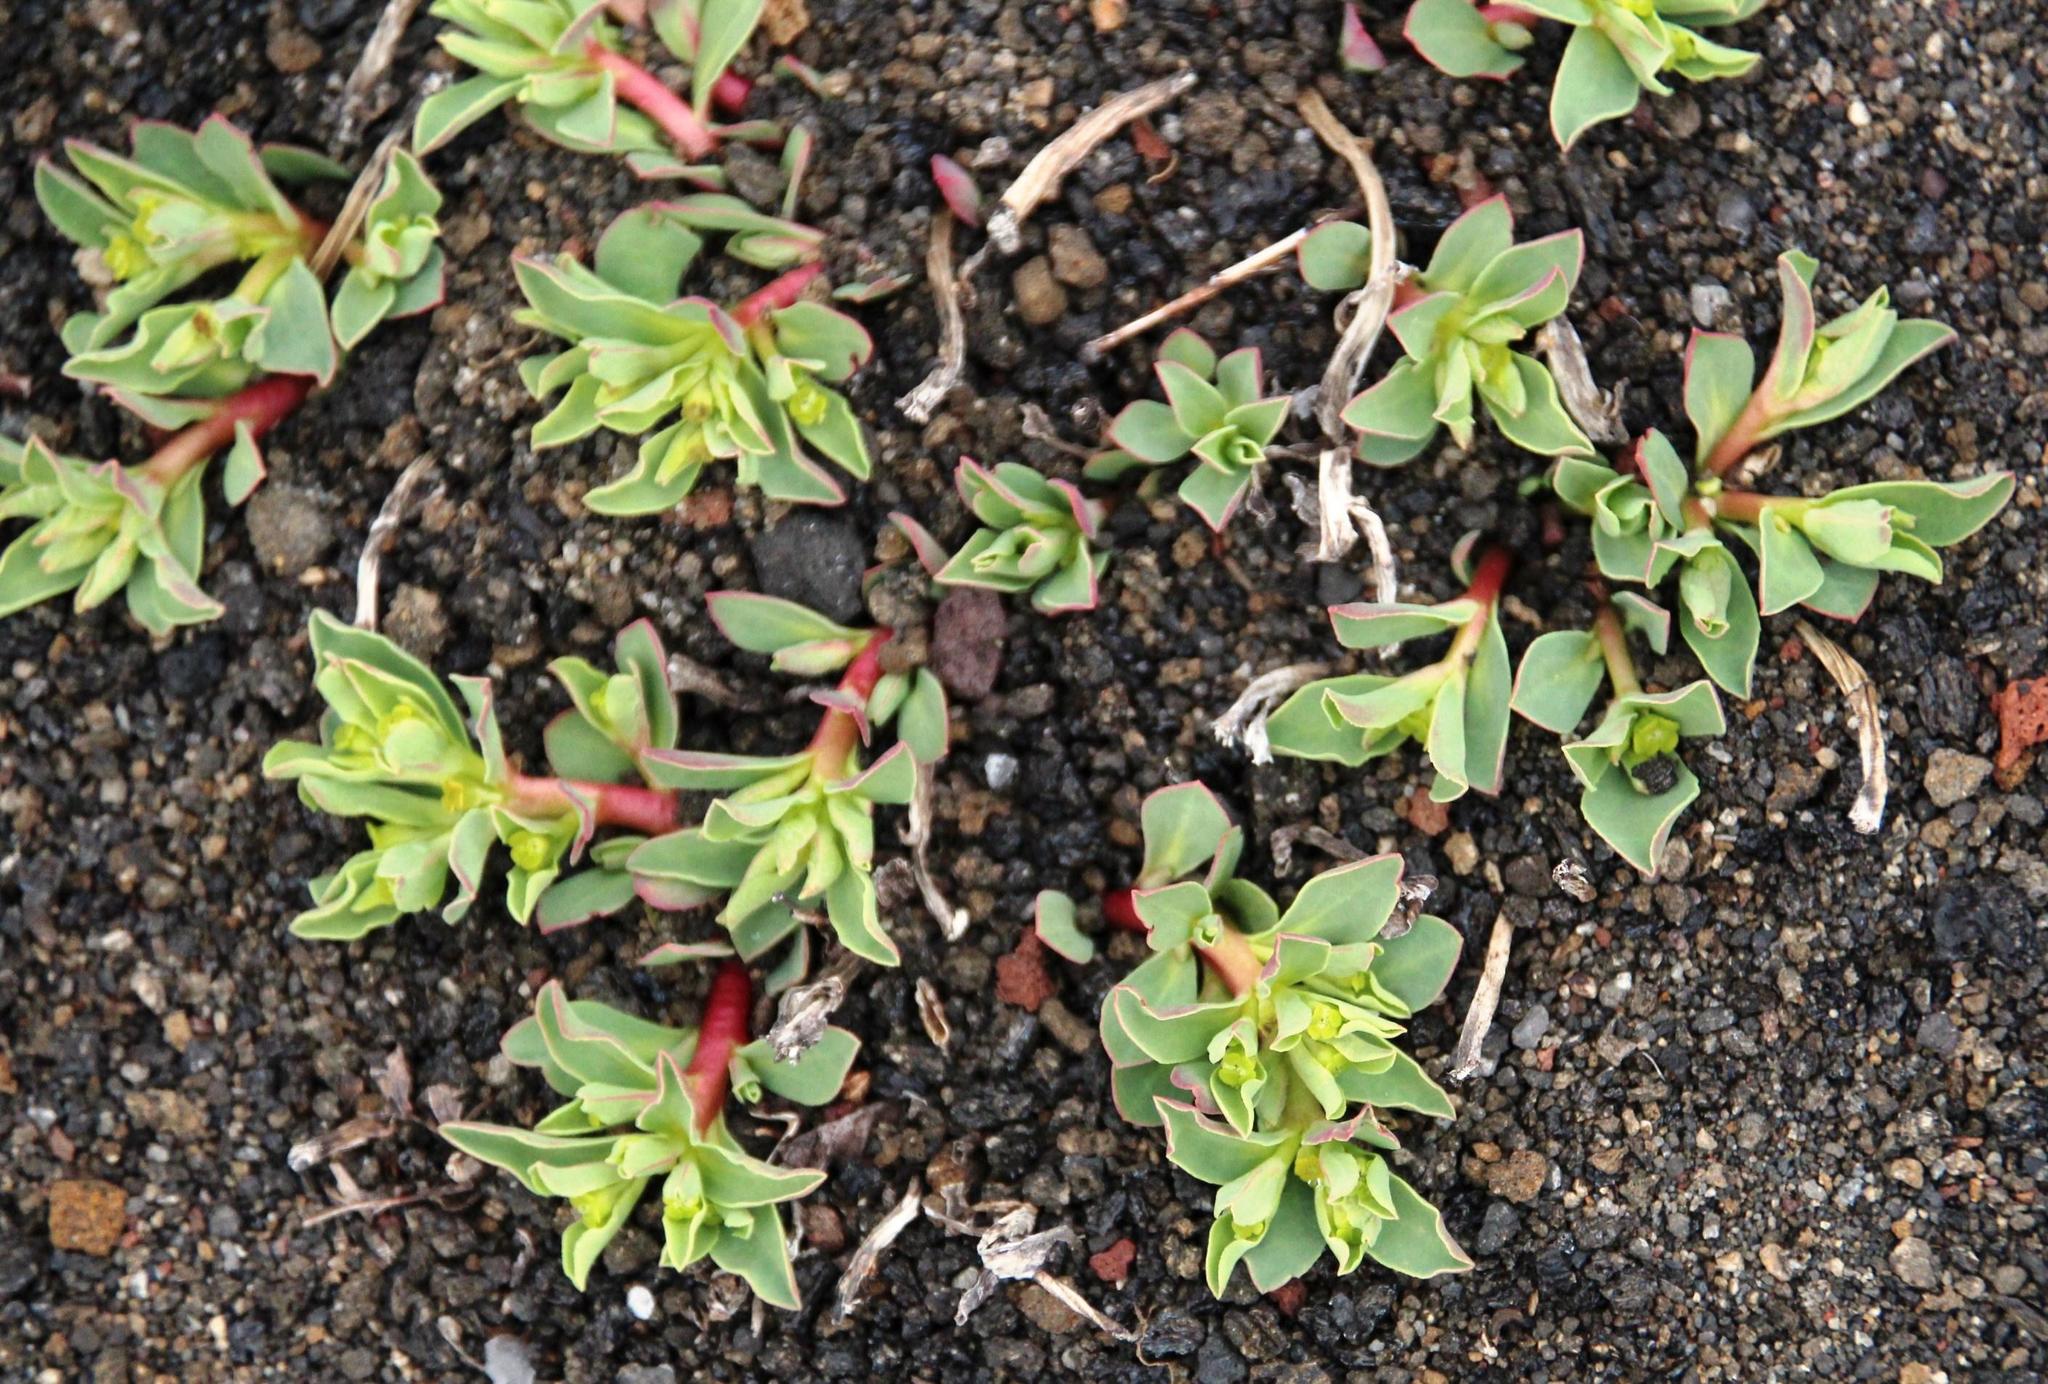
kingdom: Plantae
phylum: Tracheophyta
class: Magnoliopsida
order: Caryophyllales
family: Portulacaceae
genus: Portulaca
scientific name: Portulaca oleracea
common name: Common purslane
